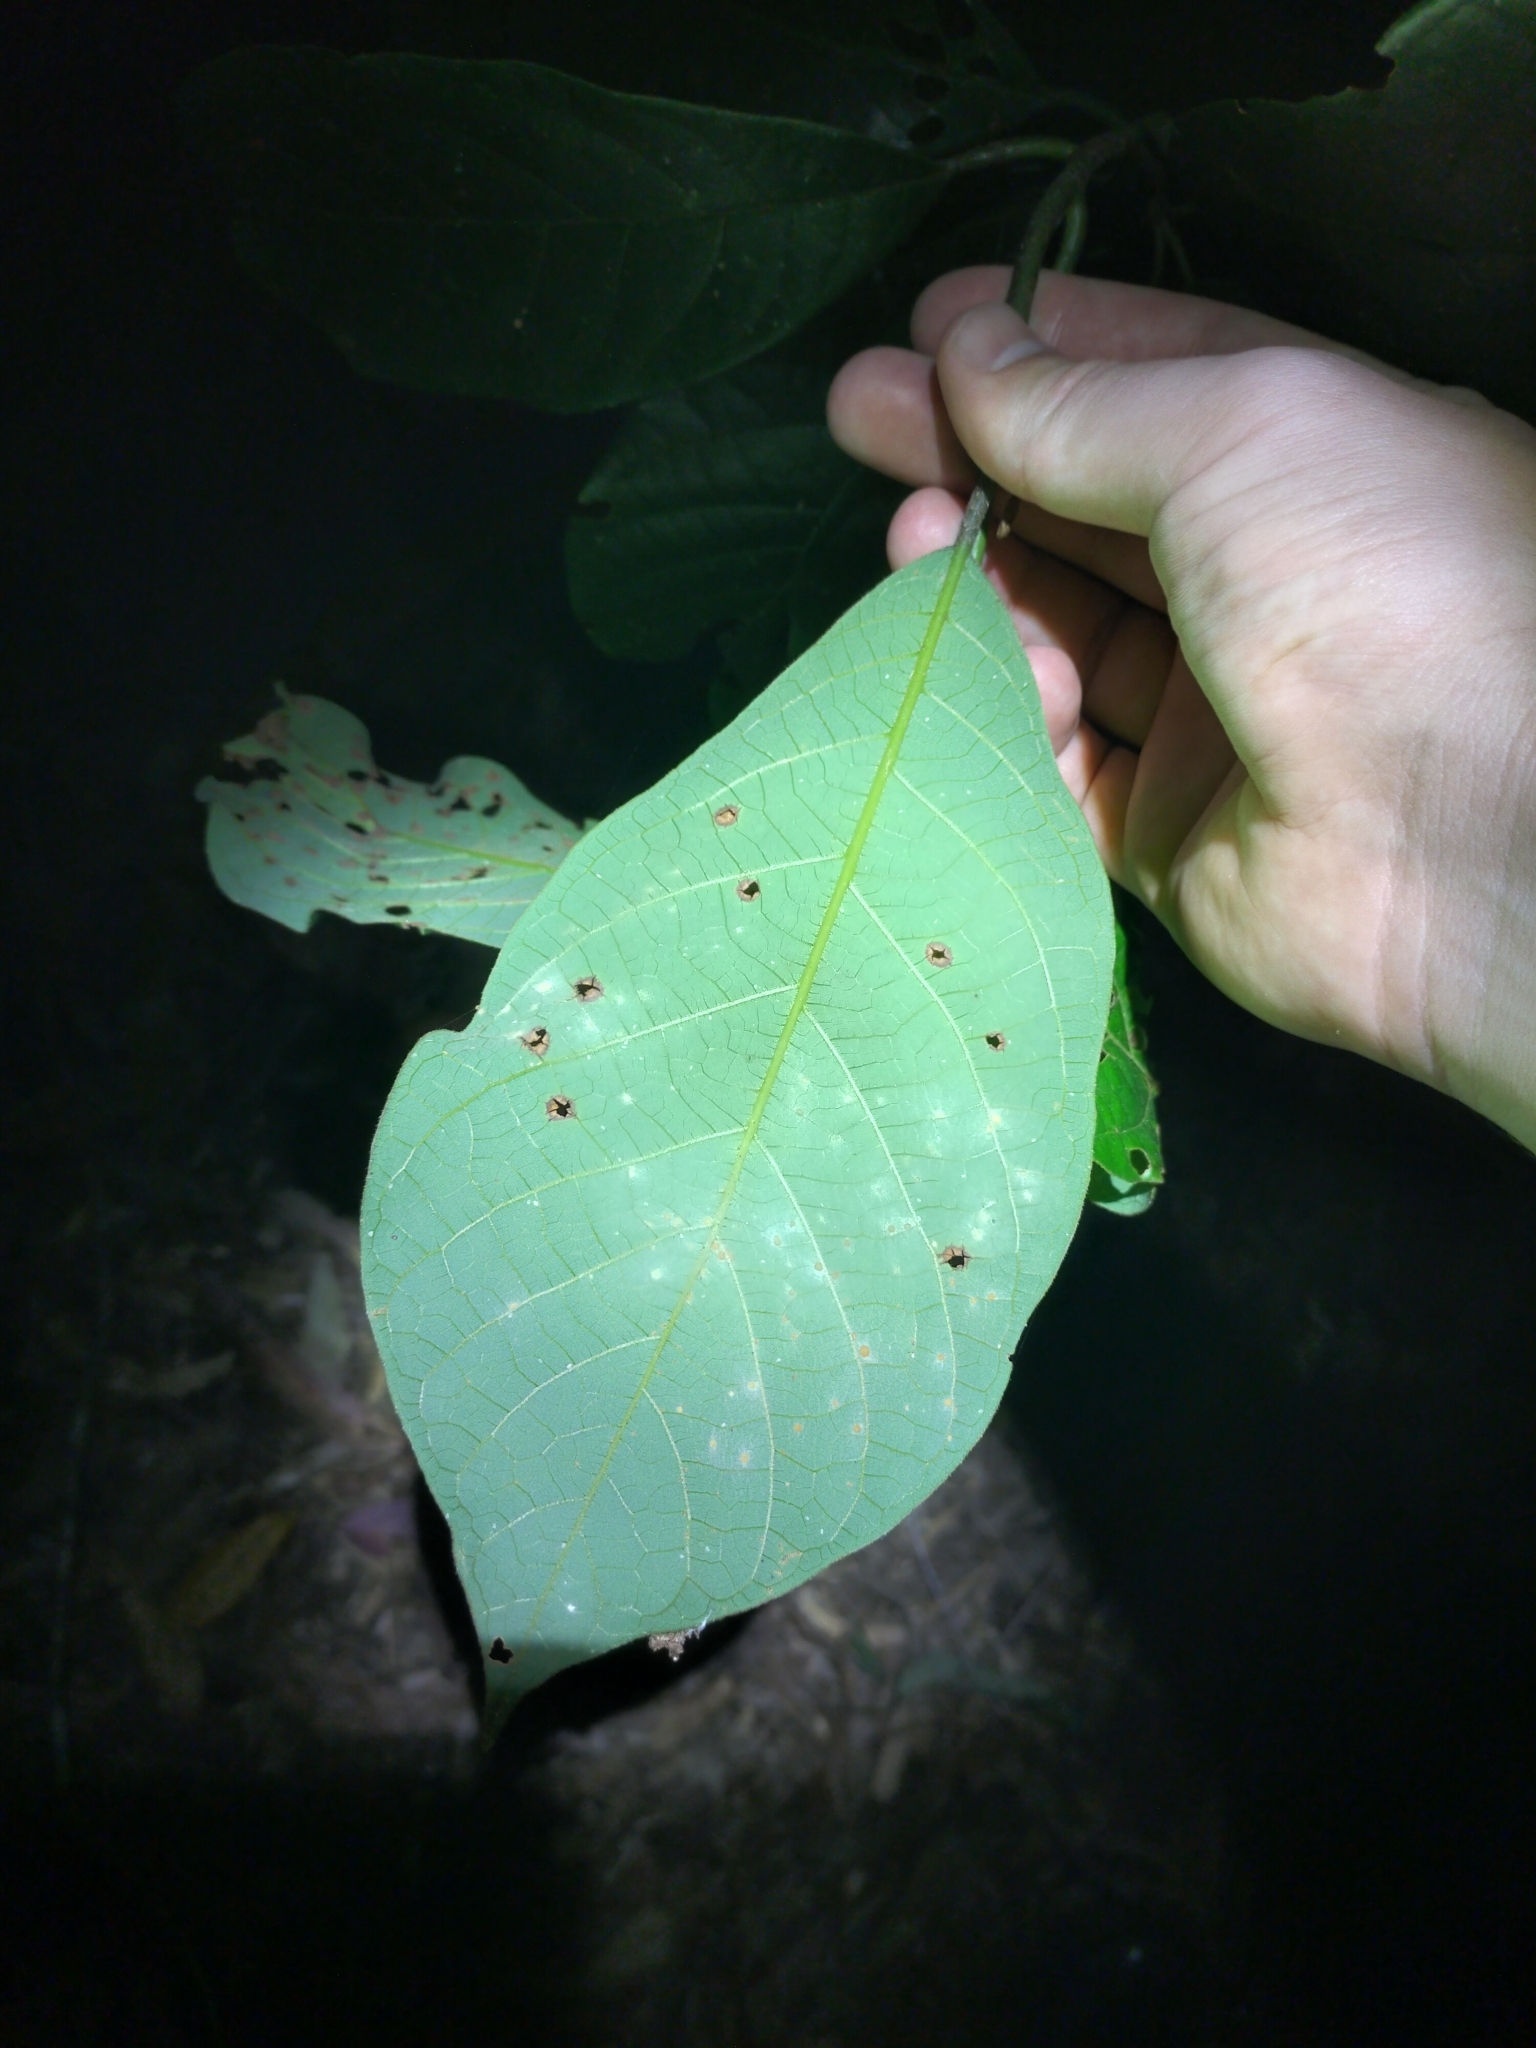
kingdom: Plantae
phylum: Tracheophyta
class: Magnoliopsida
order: Laurales
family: Lauraceae
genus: Litsea
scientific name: Litsea leefeana
